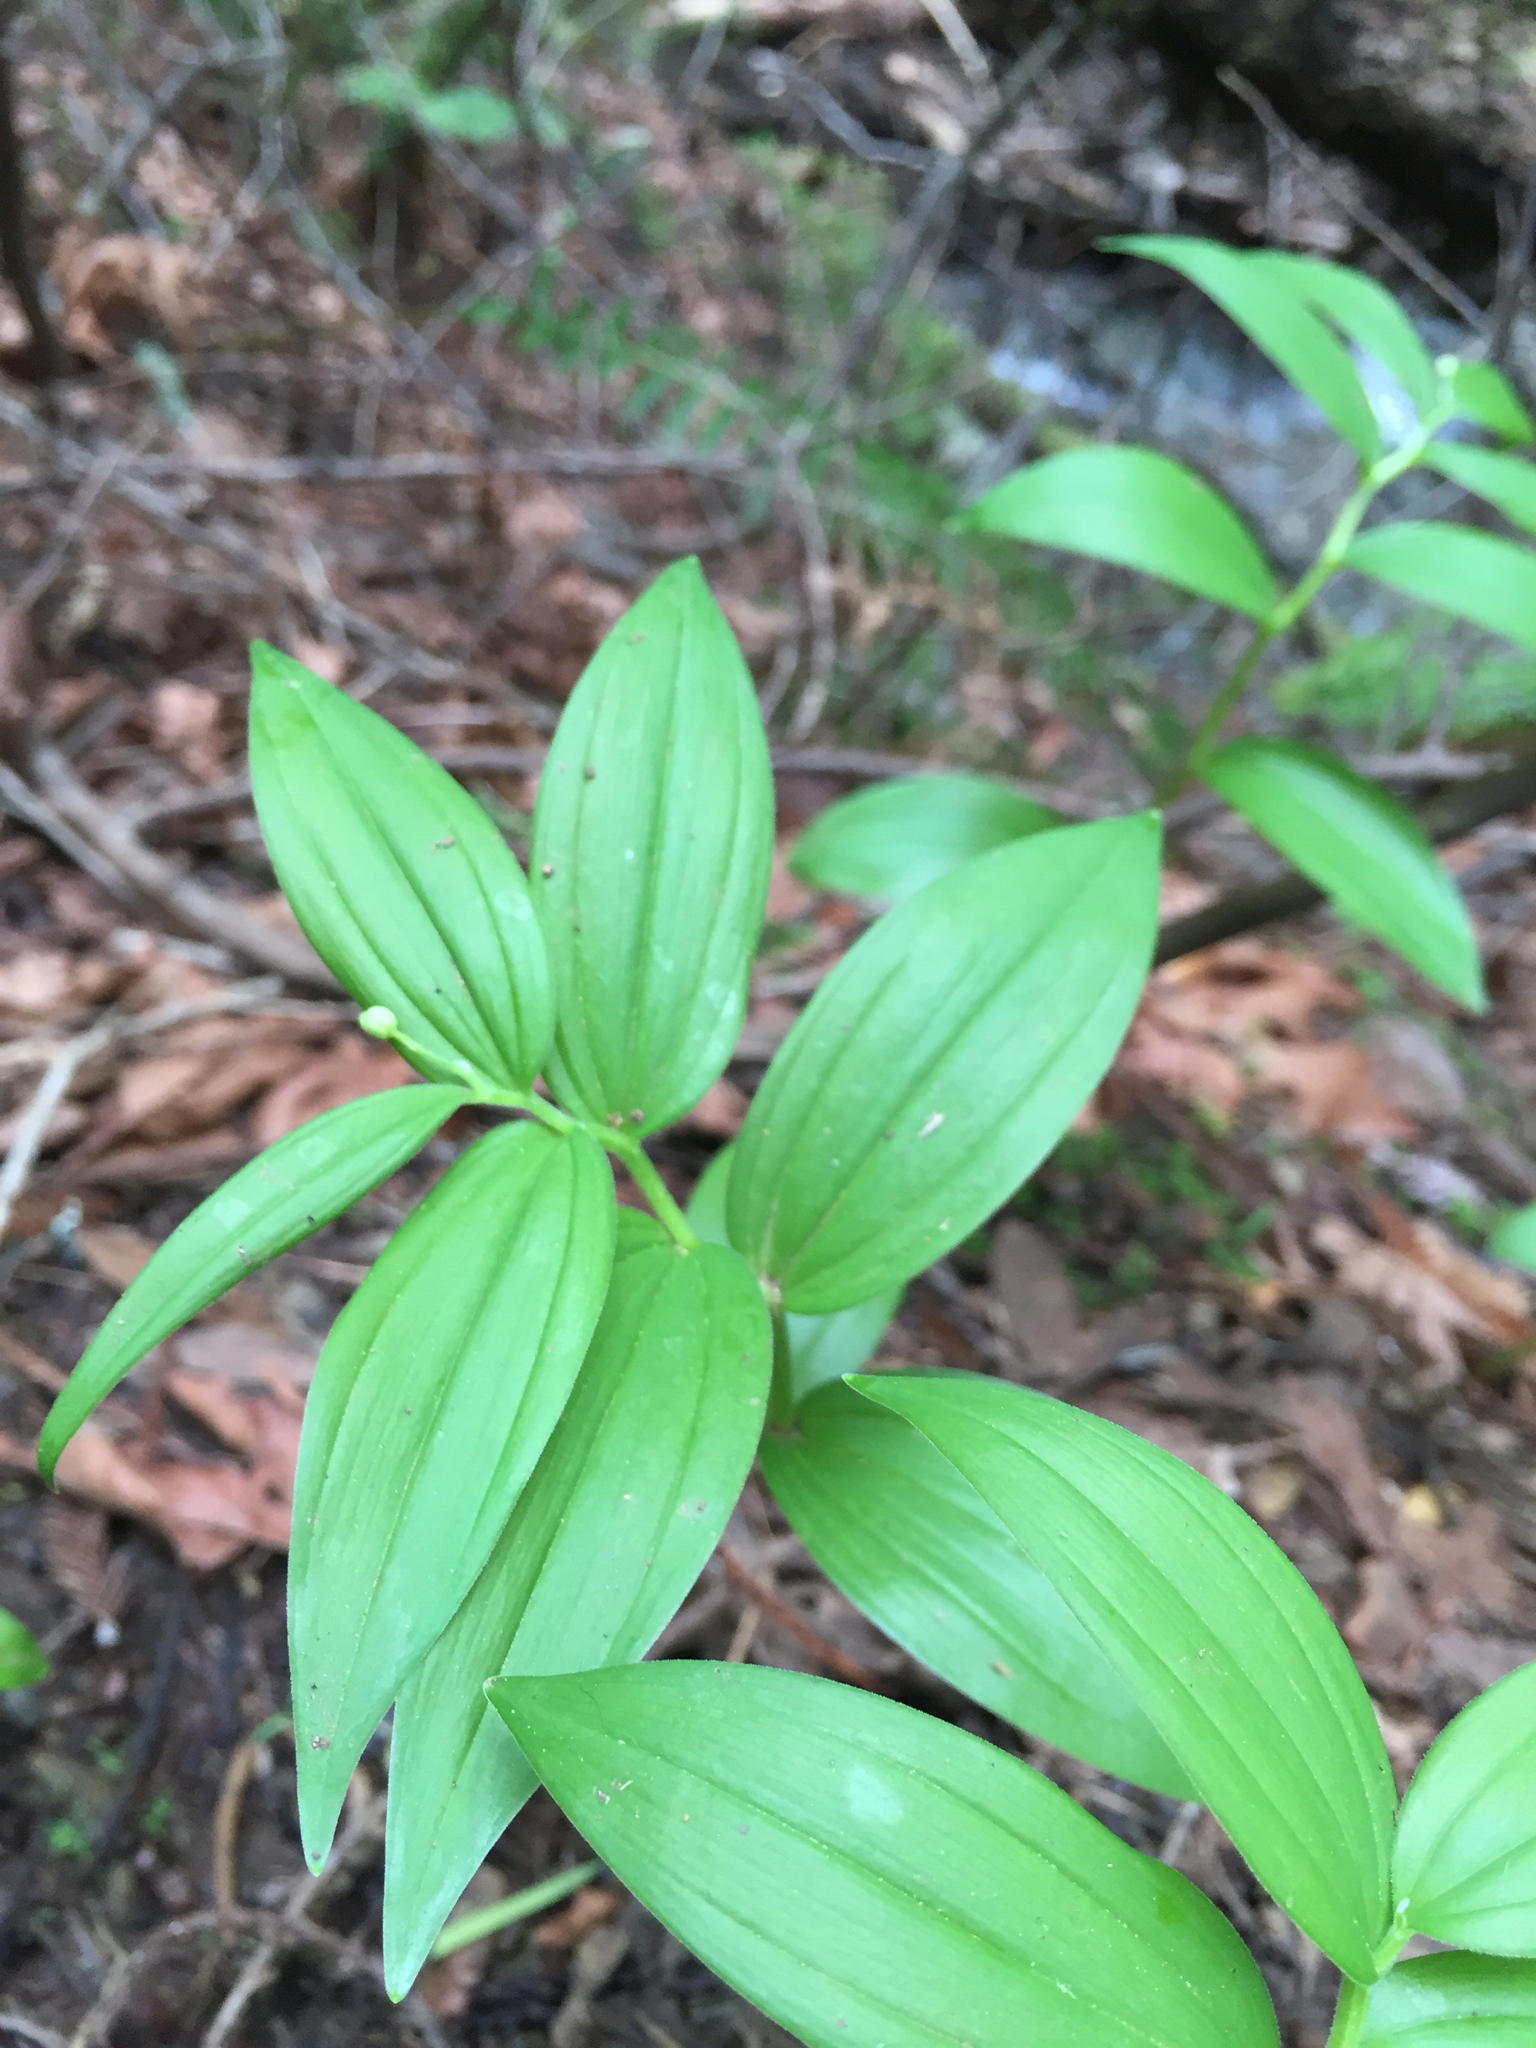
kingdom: Plantae
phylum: Tracheophyta
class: Liliopsida
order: Asparagales
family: Asparagaceae
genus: Maianthemum
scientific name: Maianthemum stellatum
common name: Little false solomon's seal
